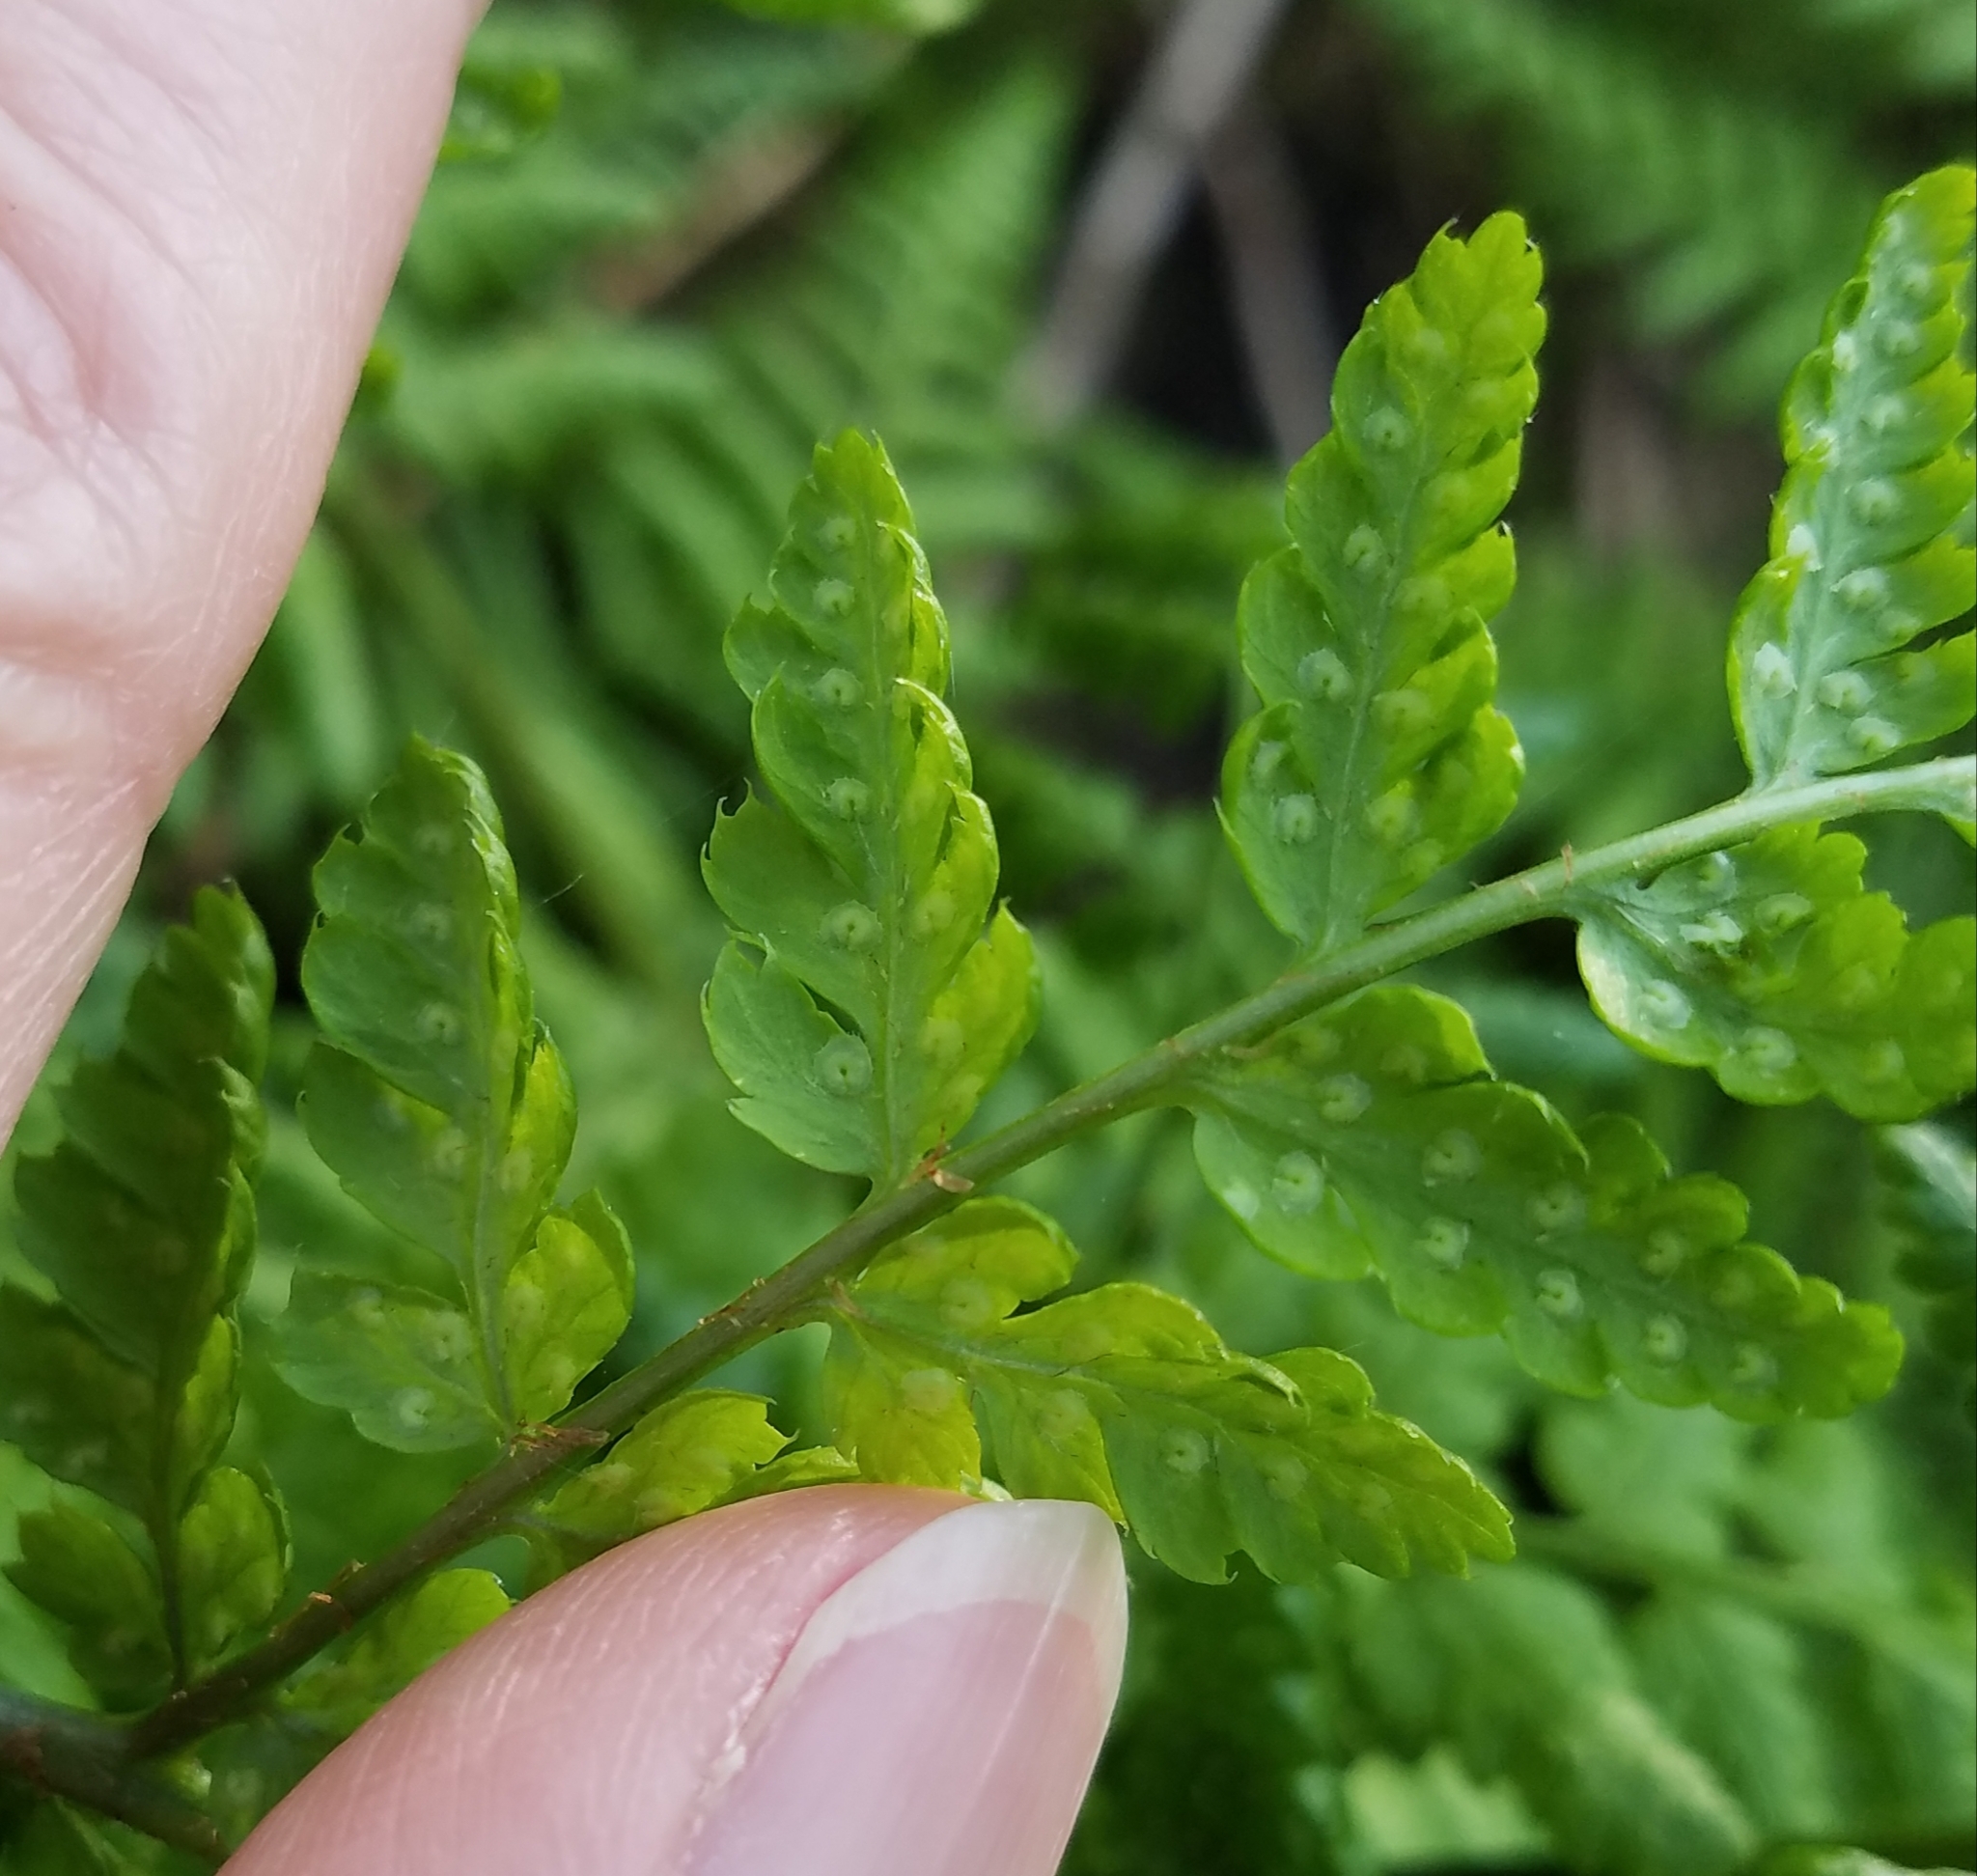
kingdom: Plantae
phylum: Tracheophyta
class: Polypodiopsida
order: Polypodiales
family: Dryopteridaceae
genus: Dryopteris
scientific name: Dryopteris dilatata
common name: Broad buckler-fern
